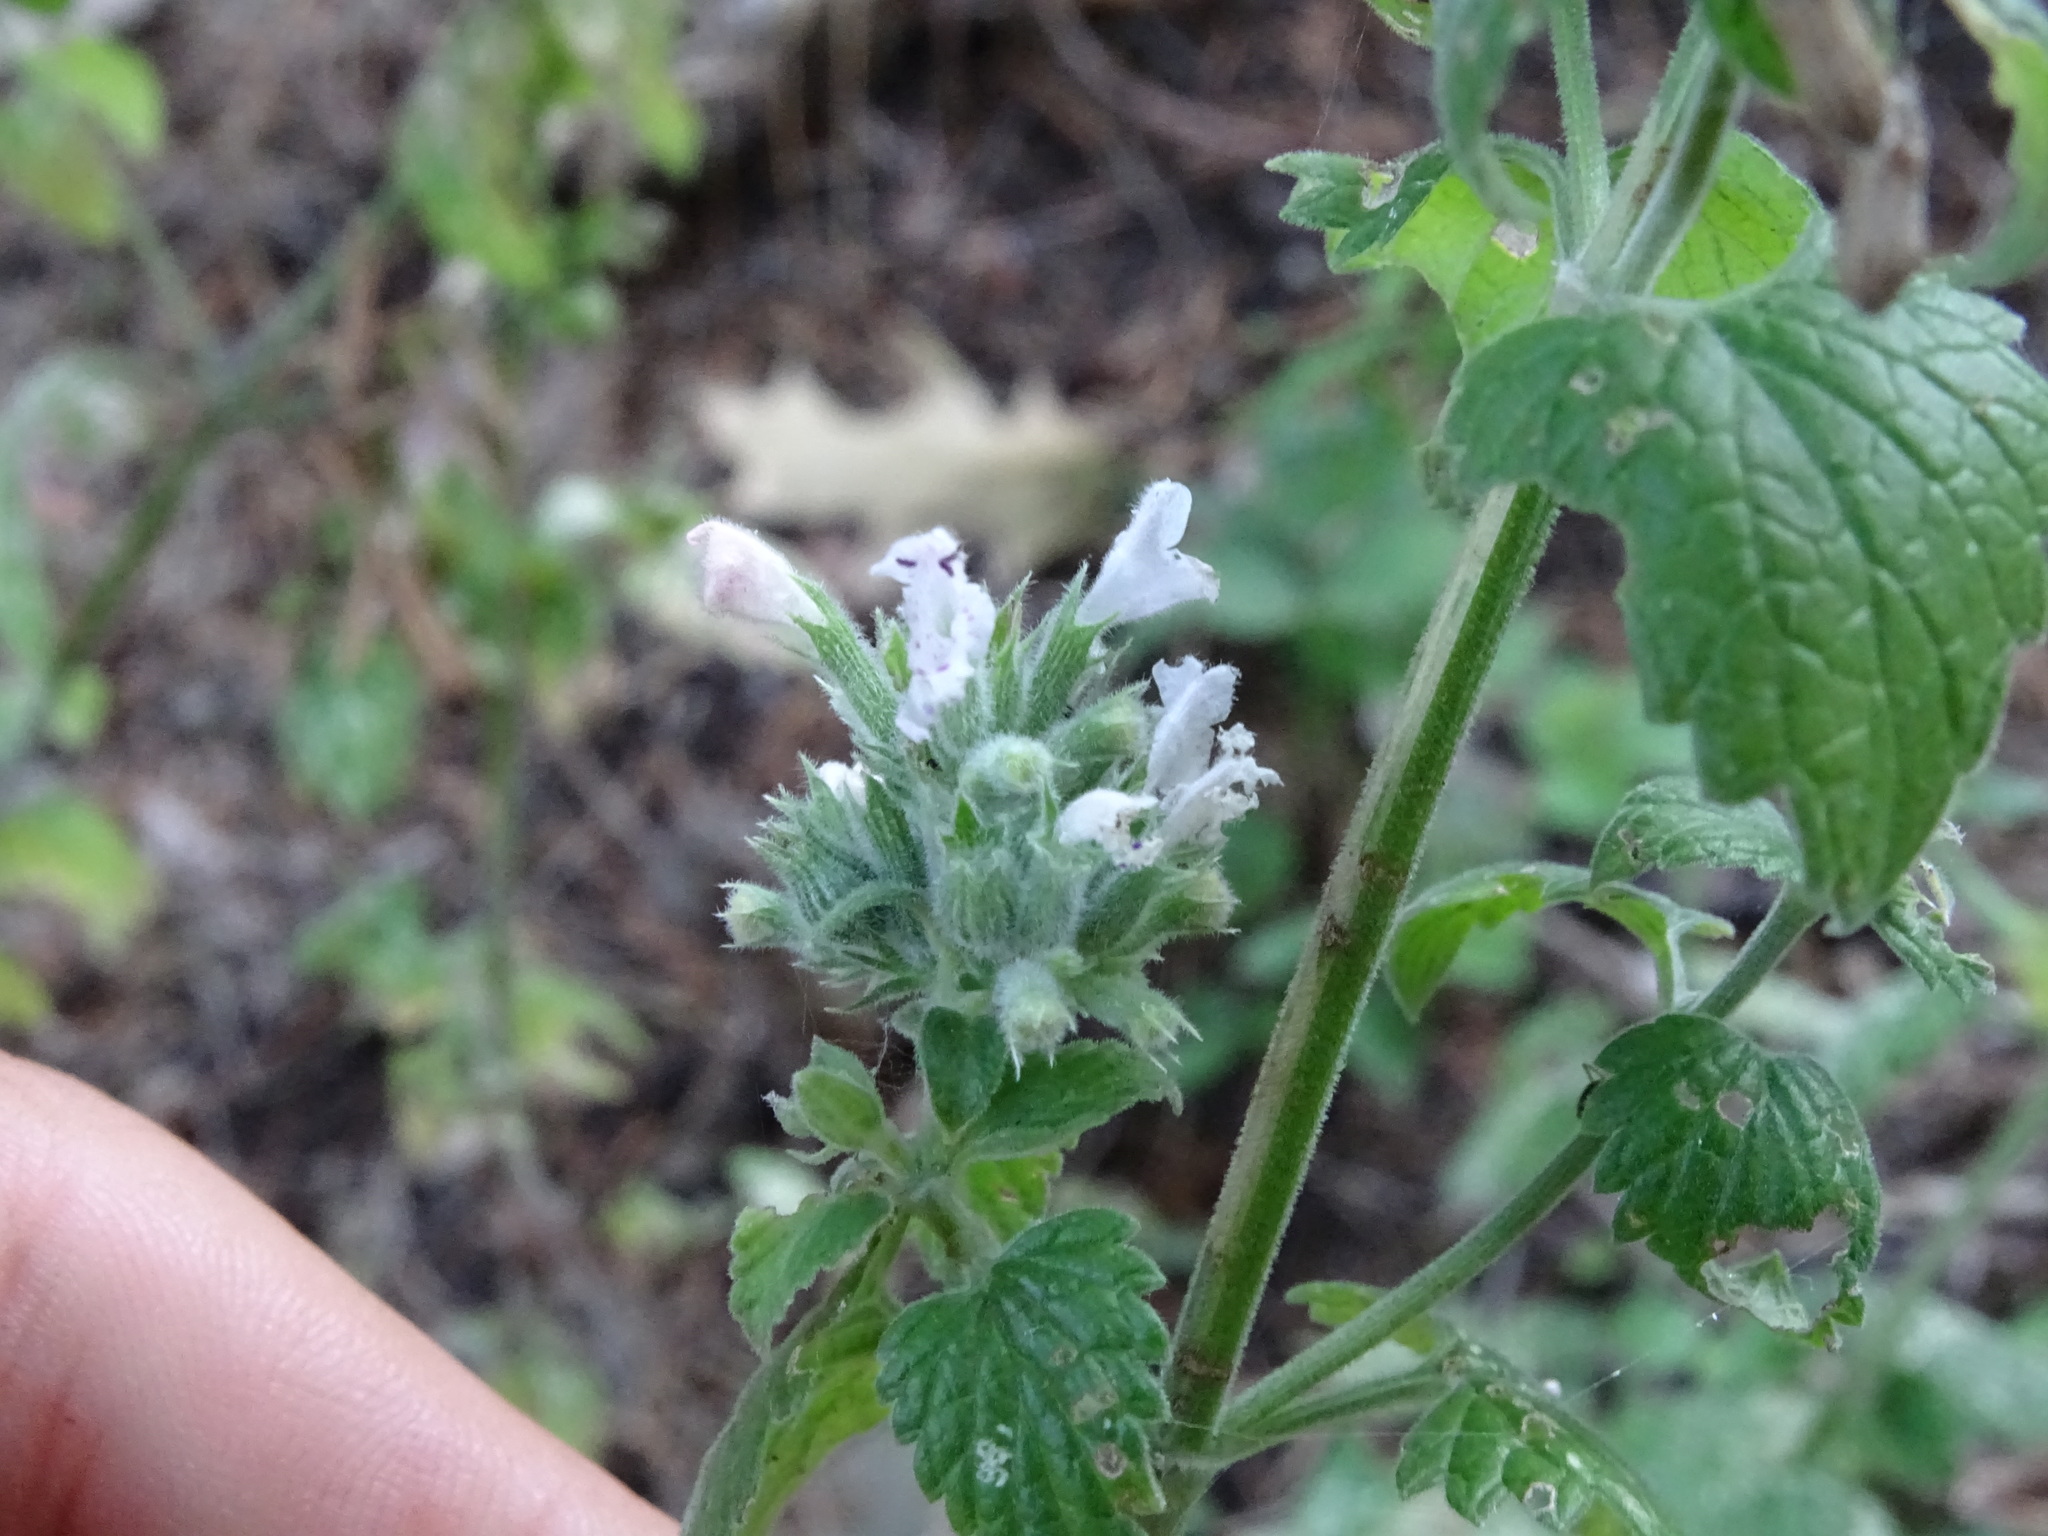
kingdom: Plantae
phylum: Tracheophyta
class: Magnoliopsida
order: Lamiales
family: Lamiaceae
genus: Nepeta
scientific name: Nepeta cataria
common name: Catnip
